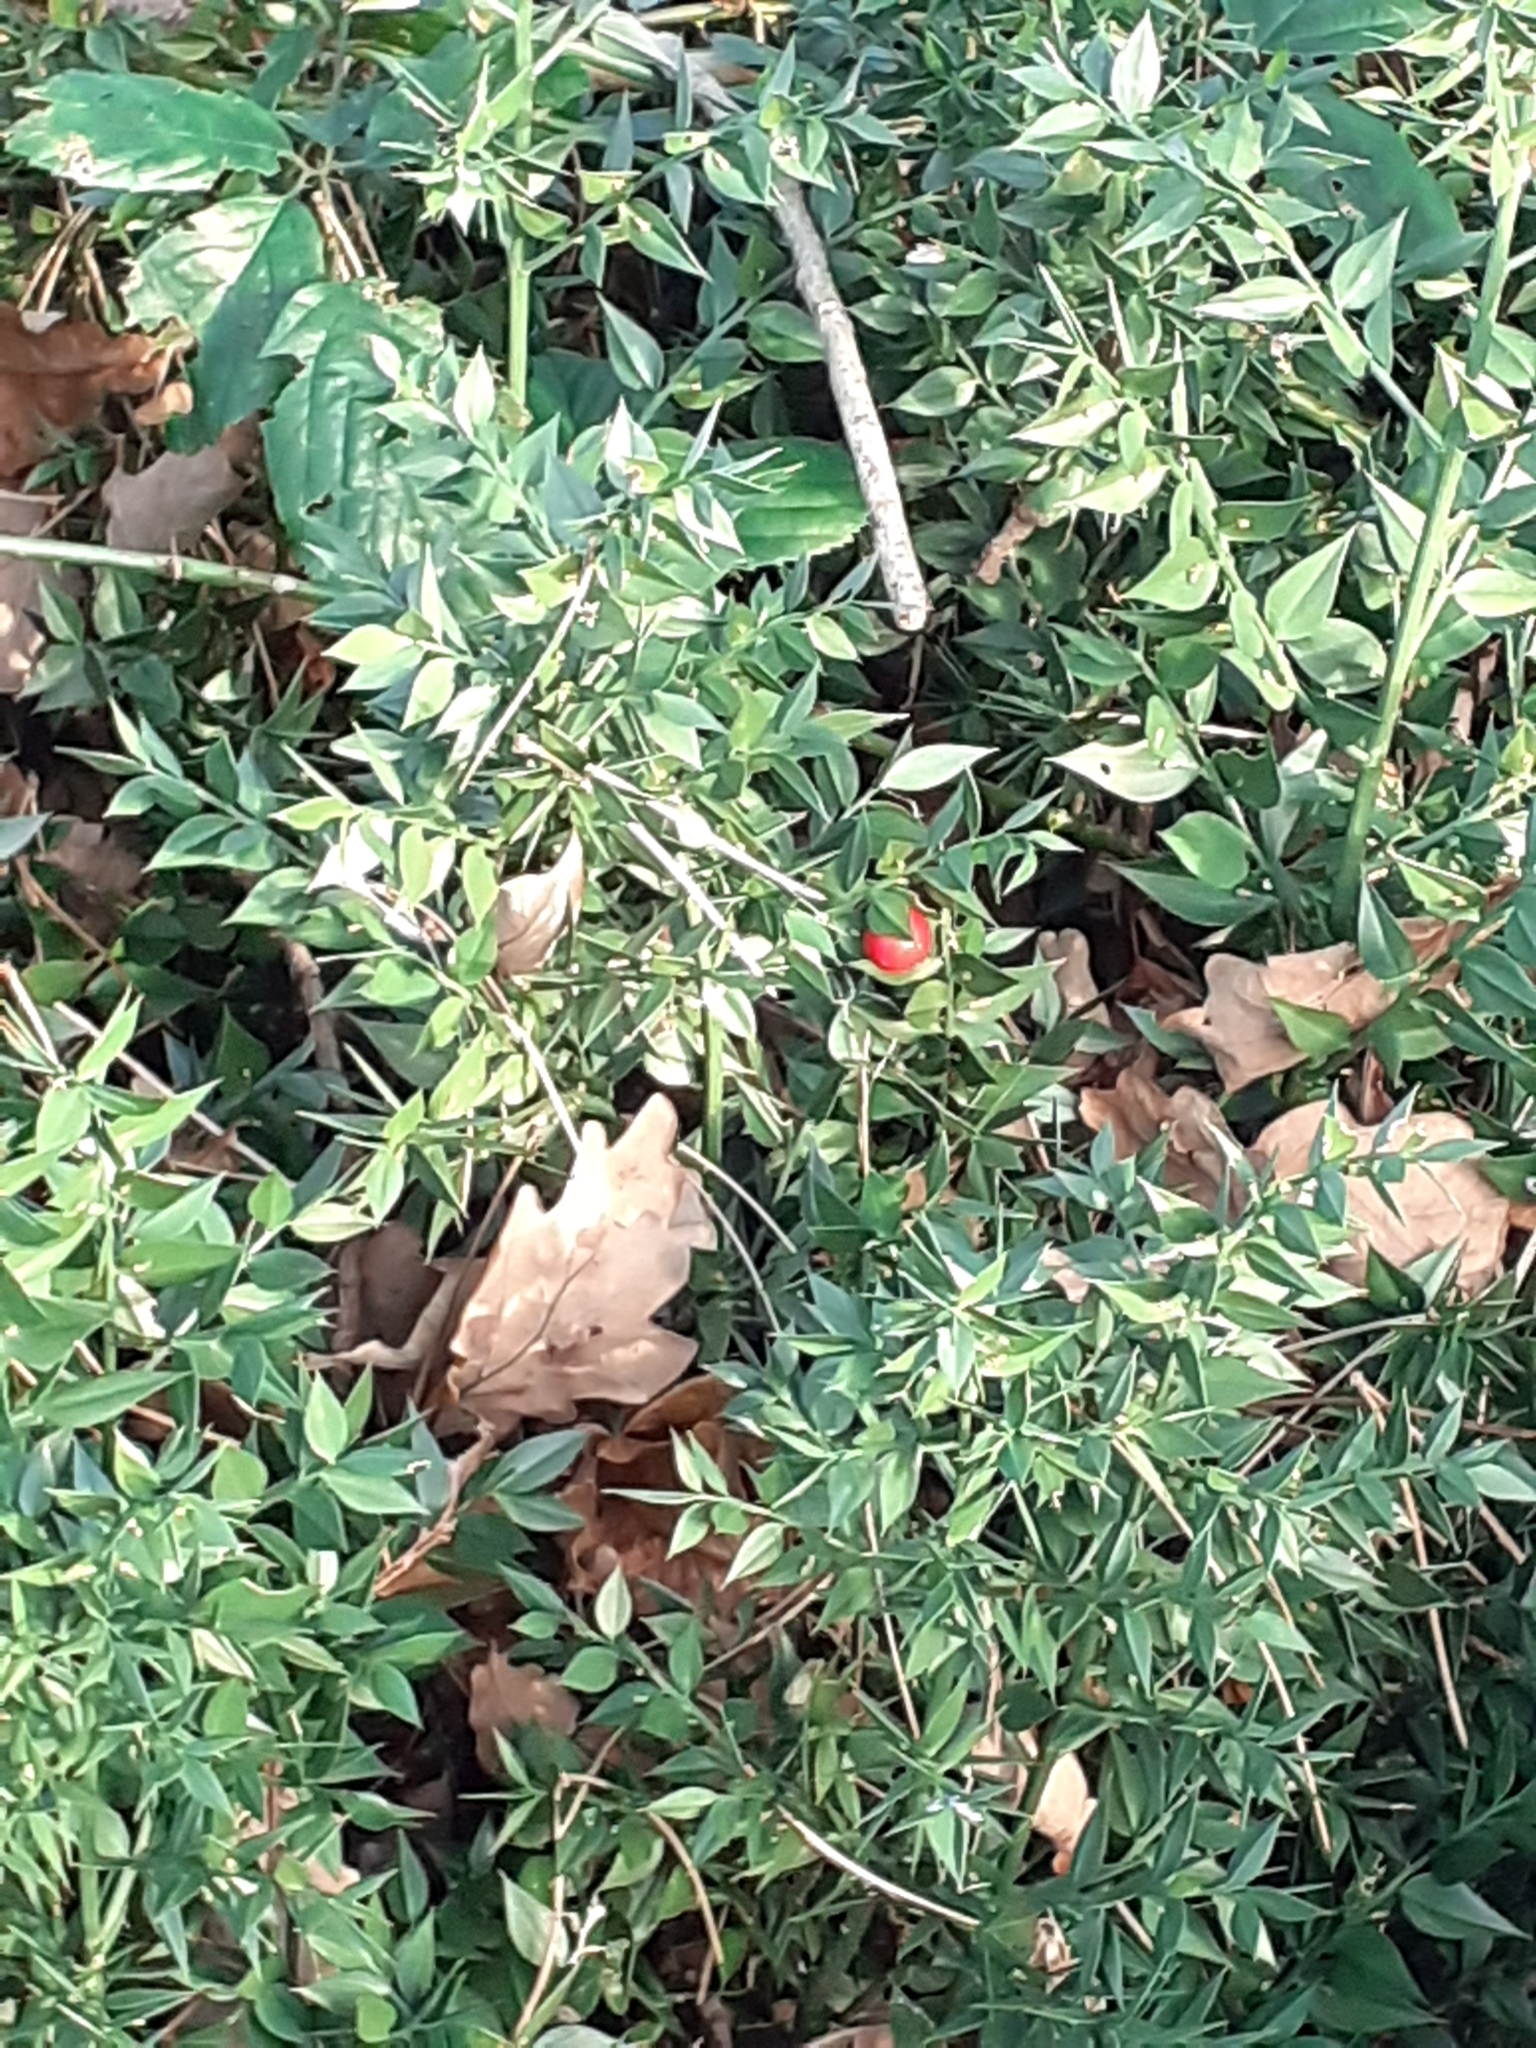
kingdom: Plantae
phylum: Tracheophyta
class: Liliopsida
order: Asparagales
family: Asparagaceae
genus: Ruscus
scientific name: Ruscus aculeatus
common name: Butcher's-broom
